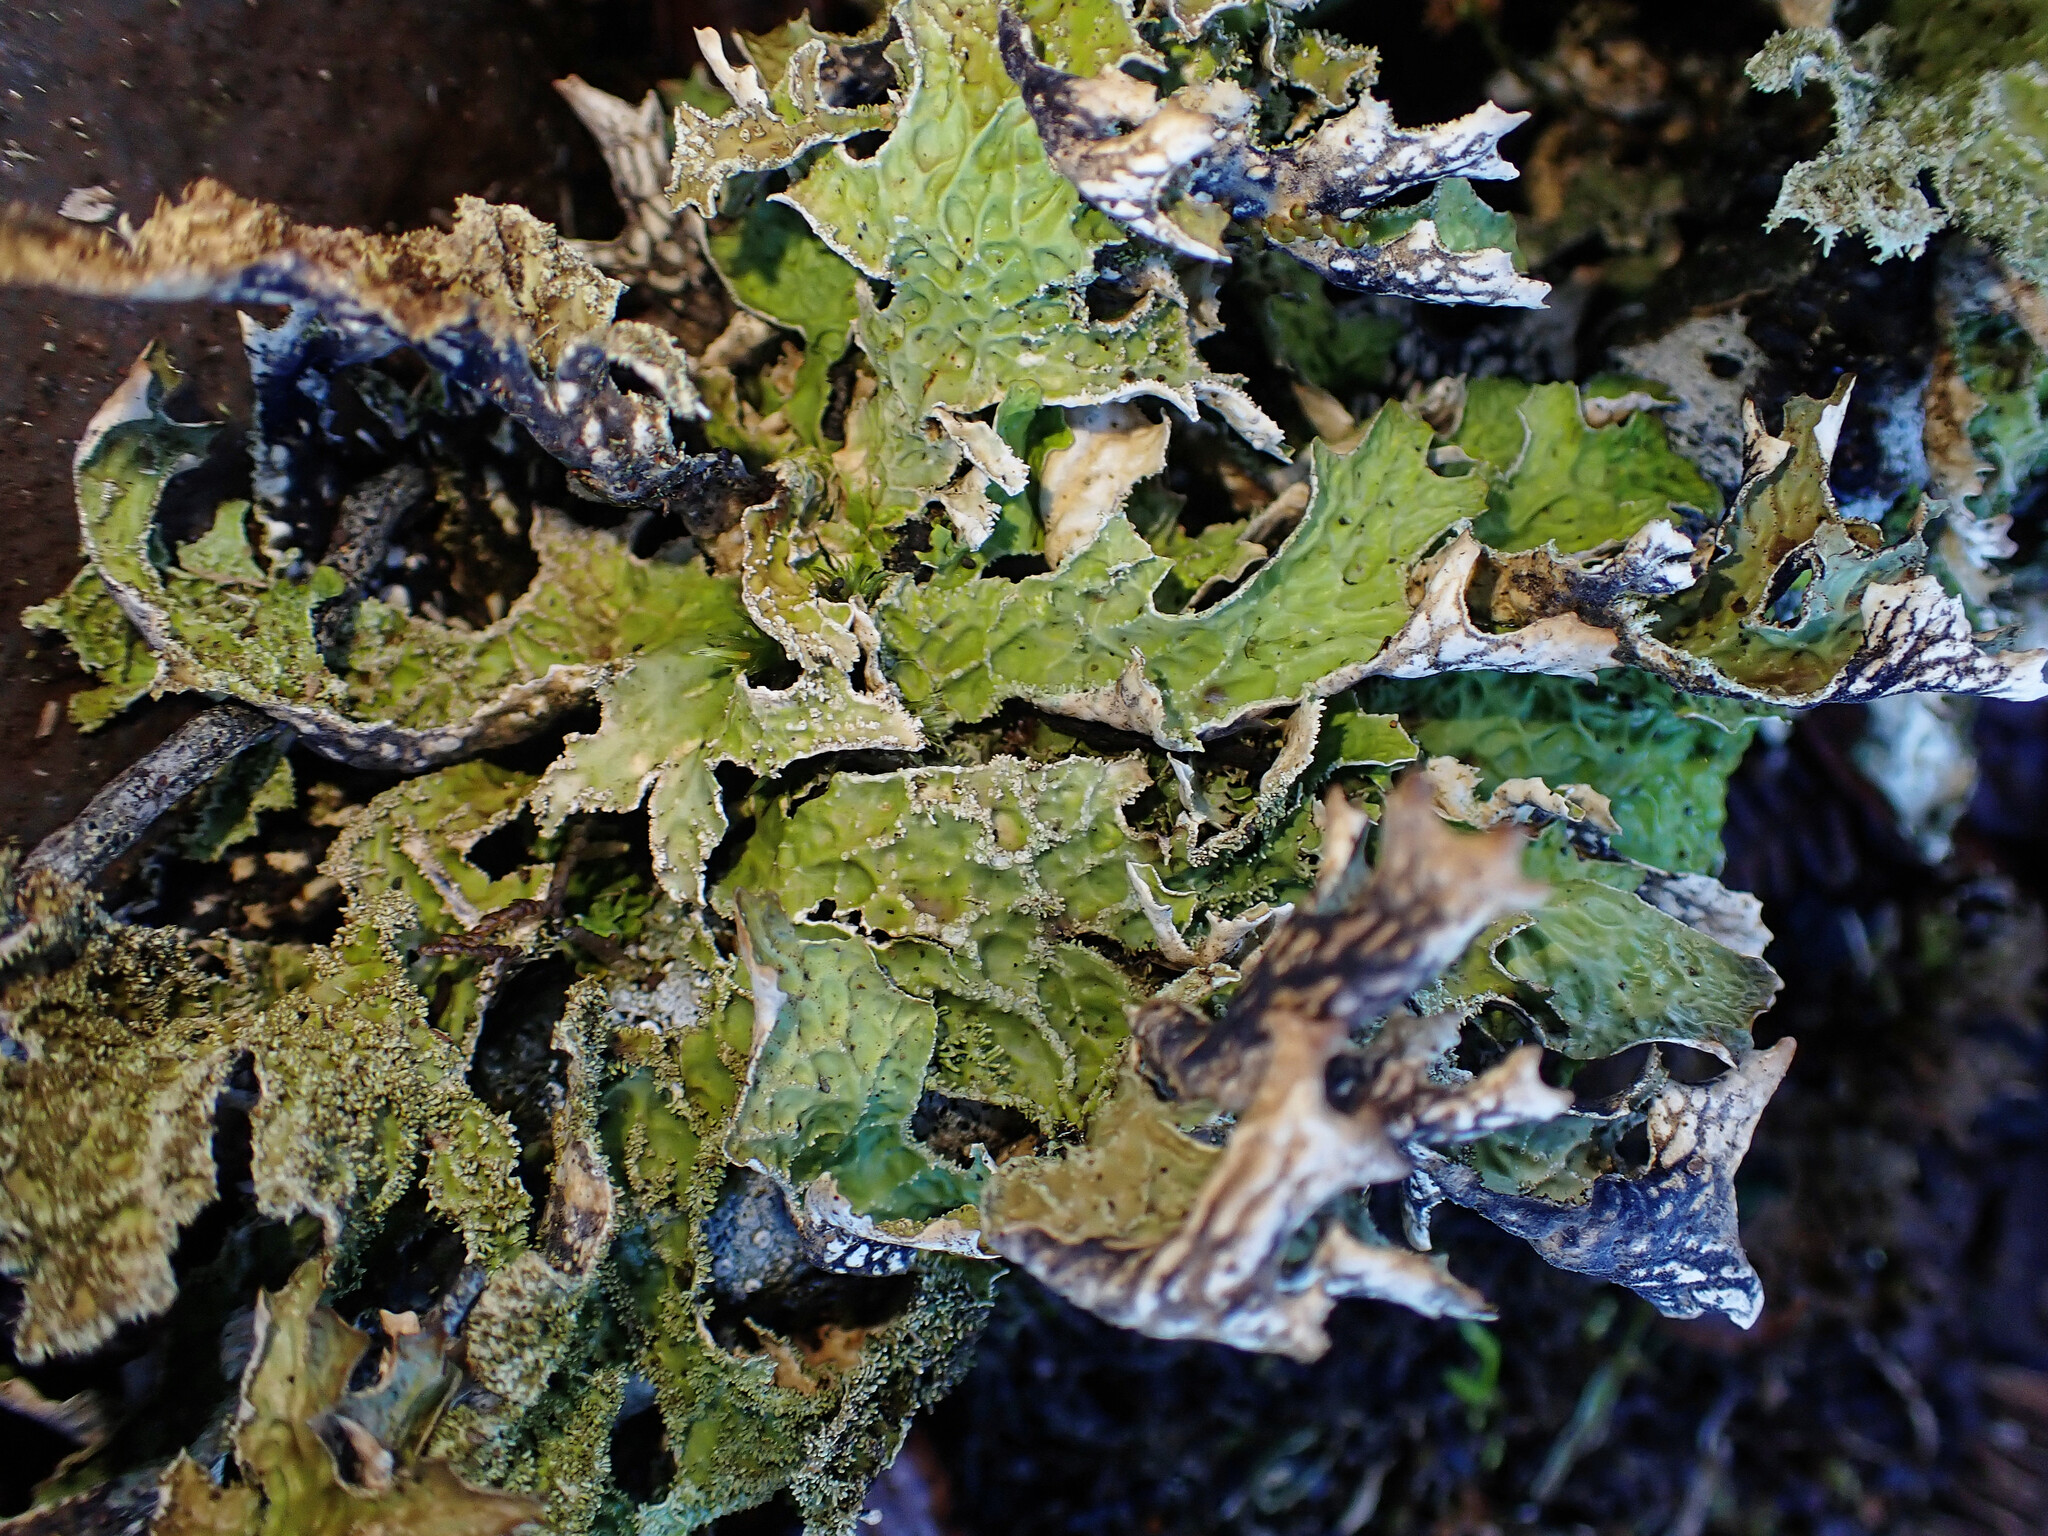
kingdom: Fungi
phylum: Ascomycota
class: Lecanoromycetes
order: Peltigerales
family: Lobariaceae
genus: Lobaria
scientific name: Lobaria pulmonaria
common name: Lungwort
